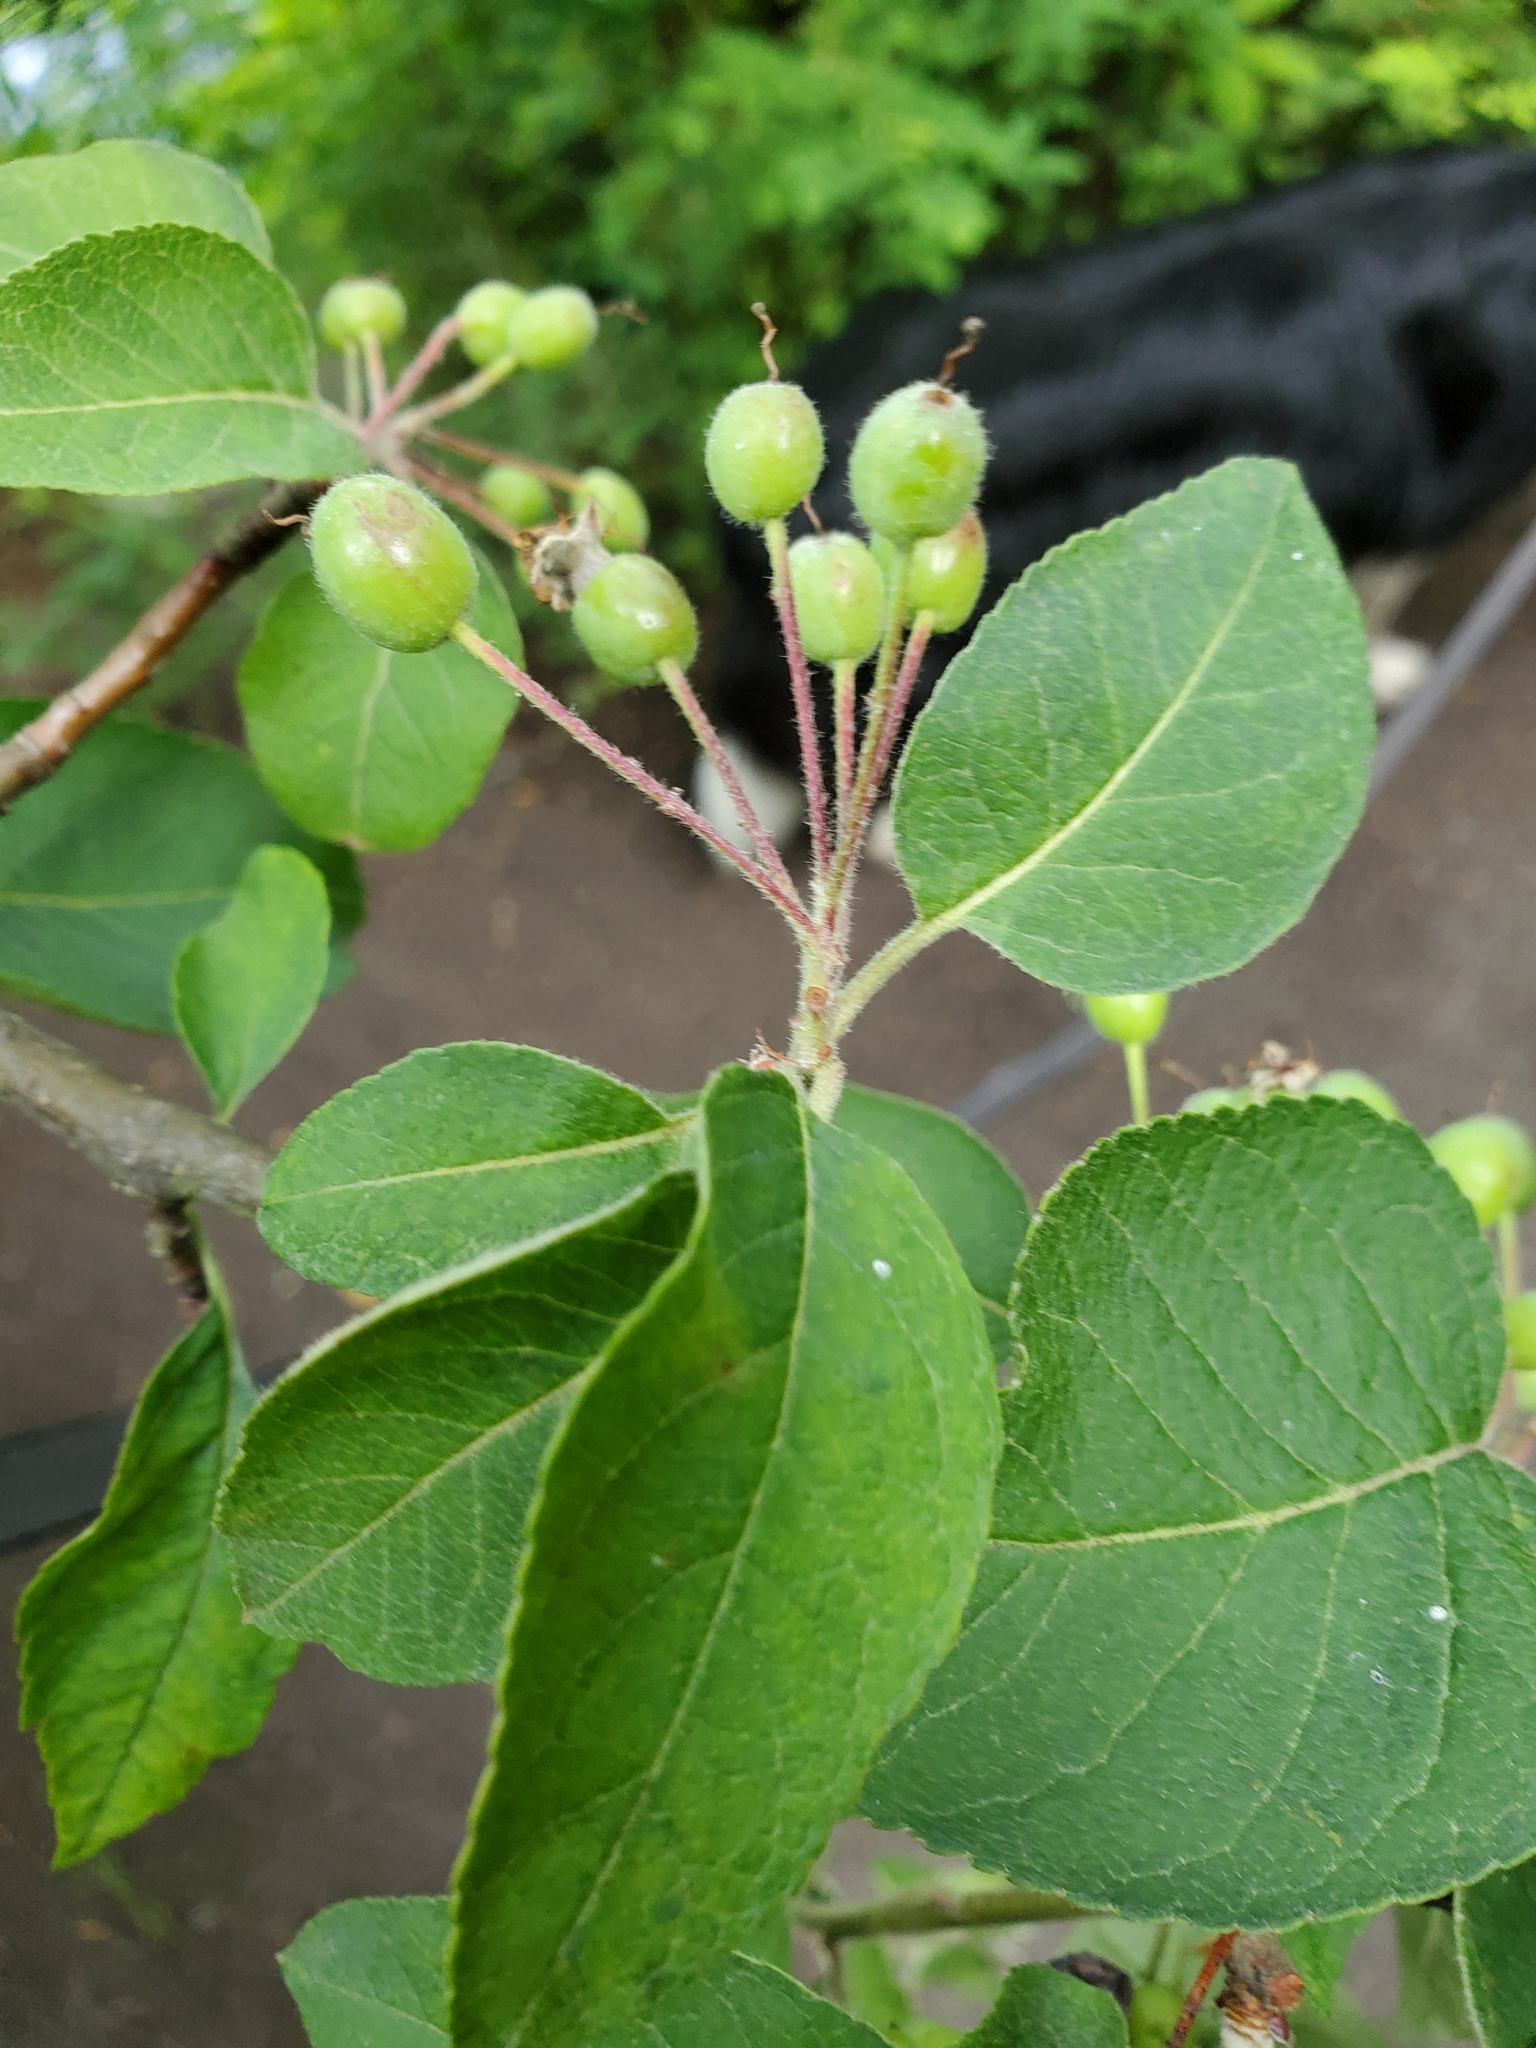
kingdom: Plantae
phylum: Tracheophyta
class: Magnoliopsida
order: Rosales
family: Rosaceae
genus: Malus
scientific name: Malus fusca
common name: Oregon crab apple
